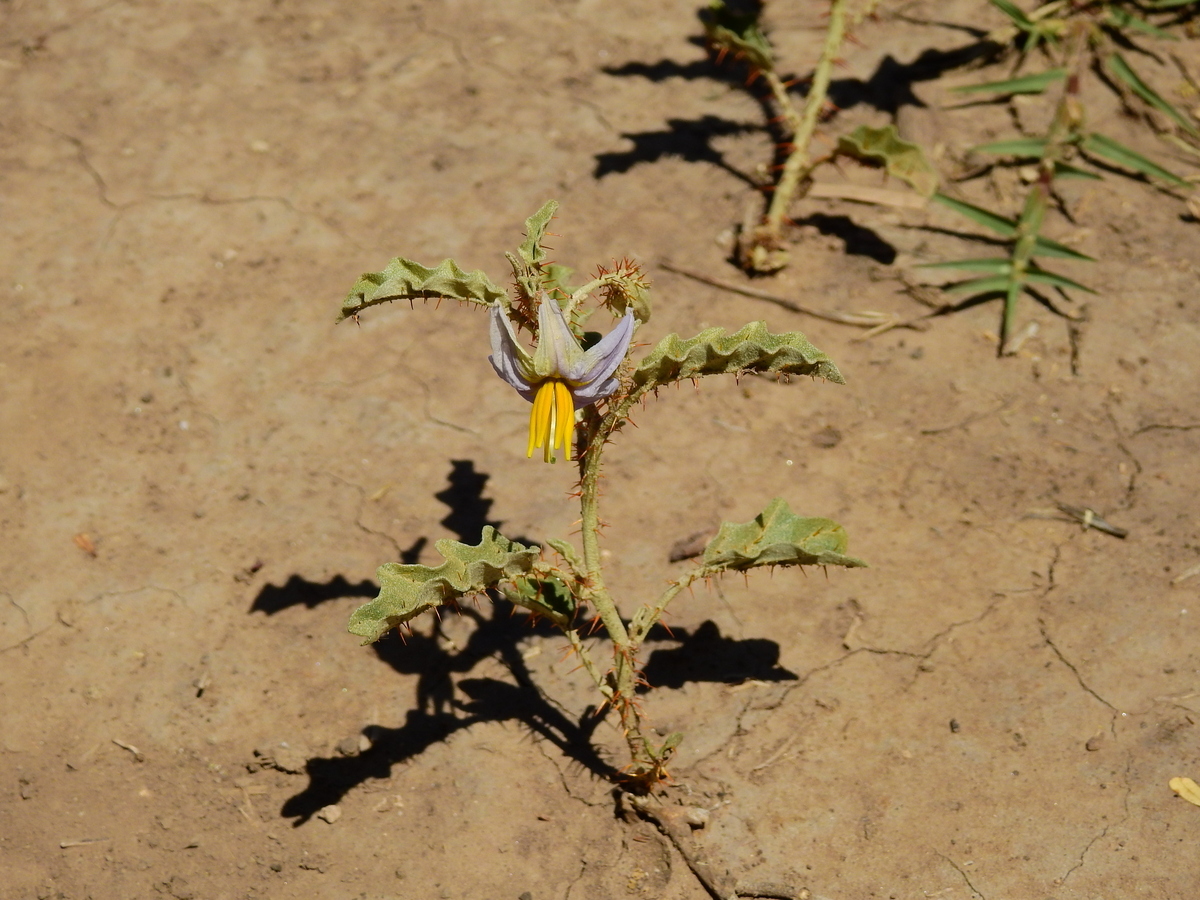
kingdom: Plantae
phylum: Tracheophyta
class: Magnoliopsida
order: Solanales
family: Solanaceae
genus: Solanum
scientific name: Solanum elaeagnifolium
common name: Silverleaf nightshade
